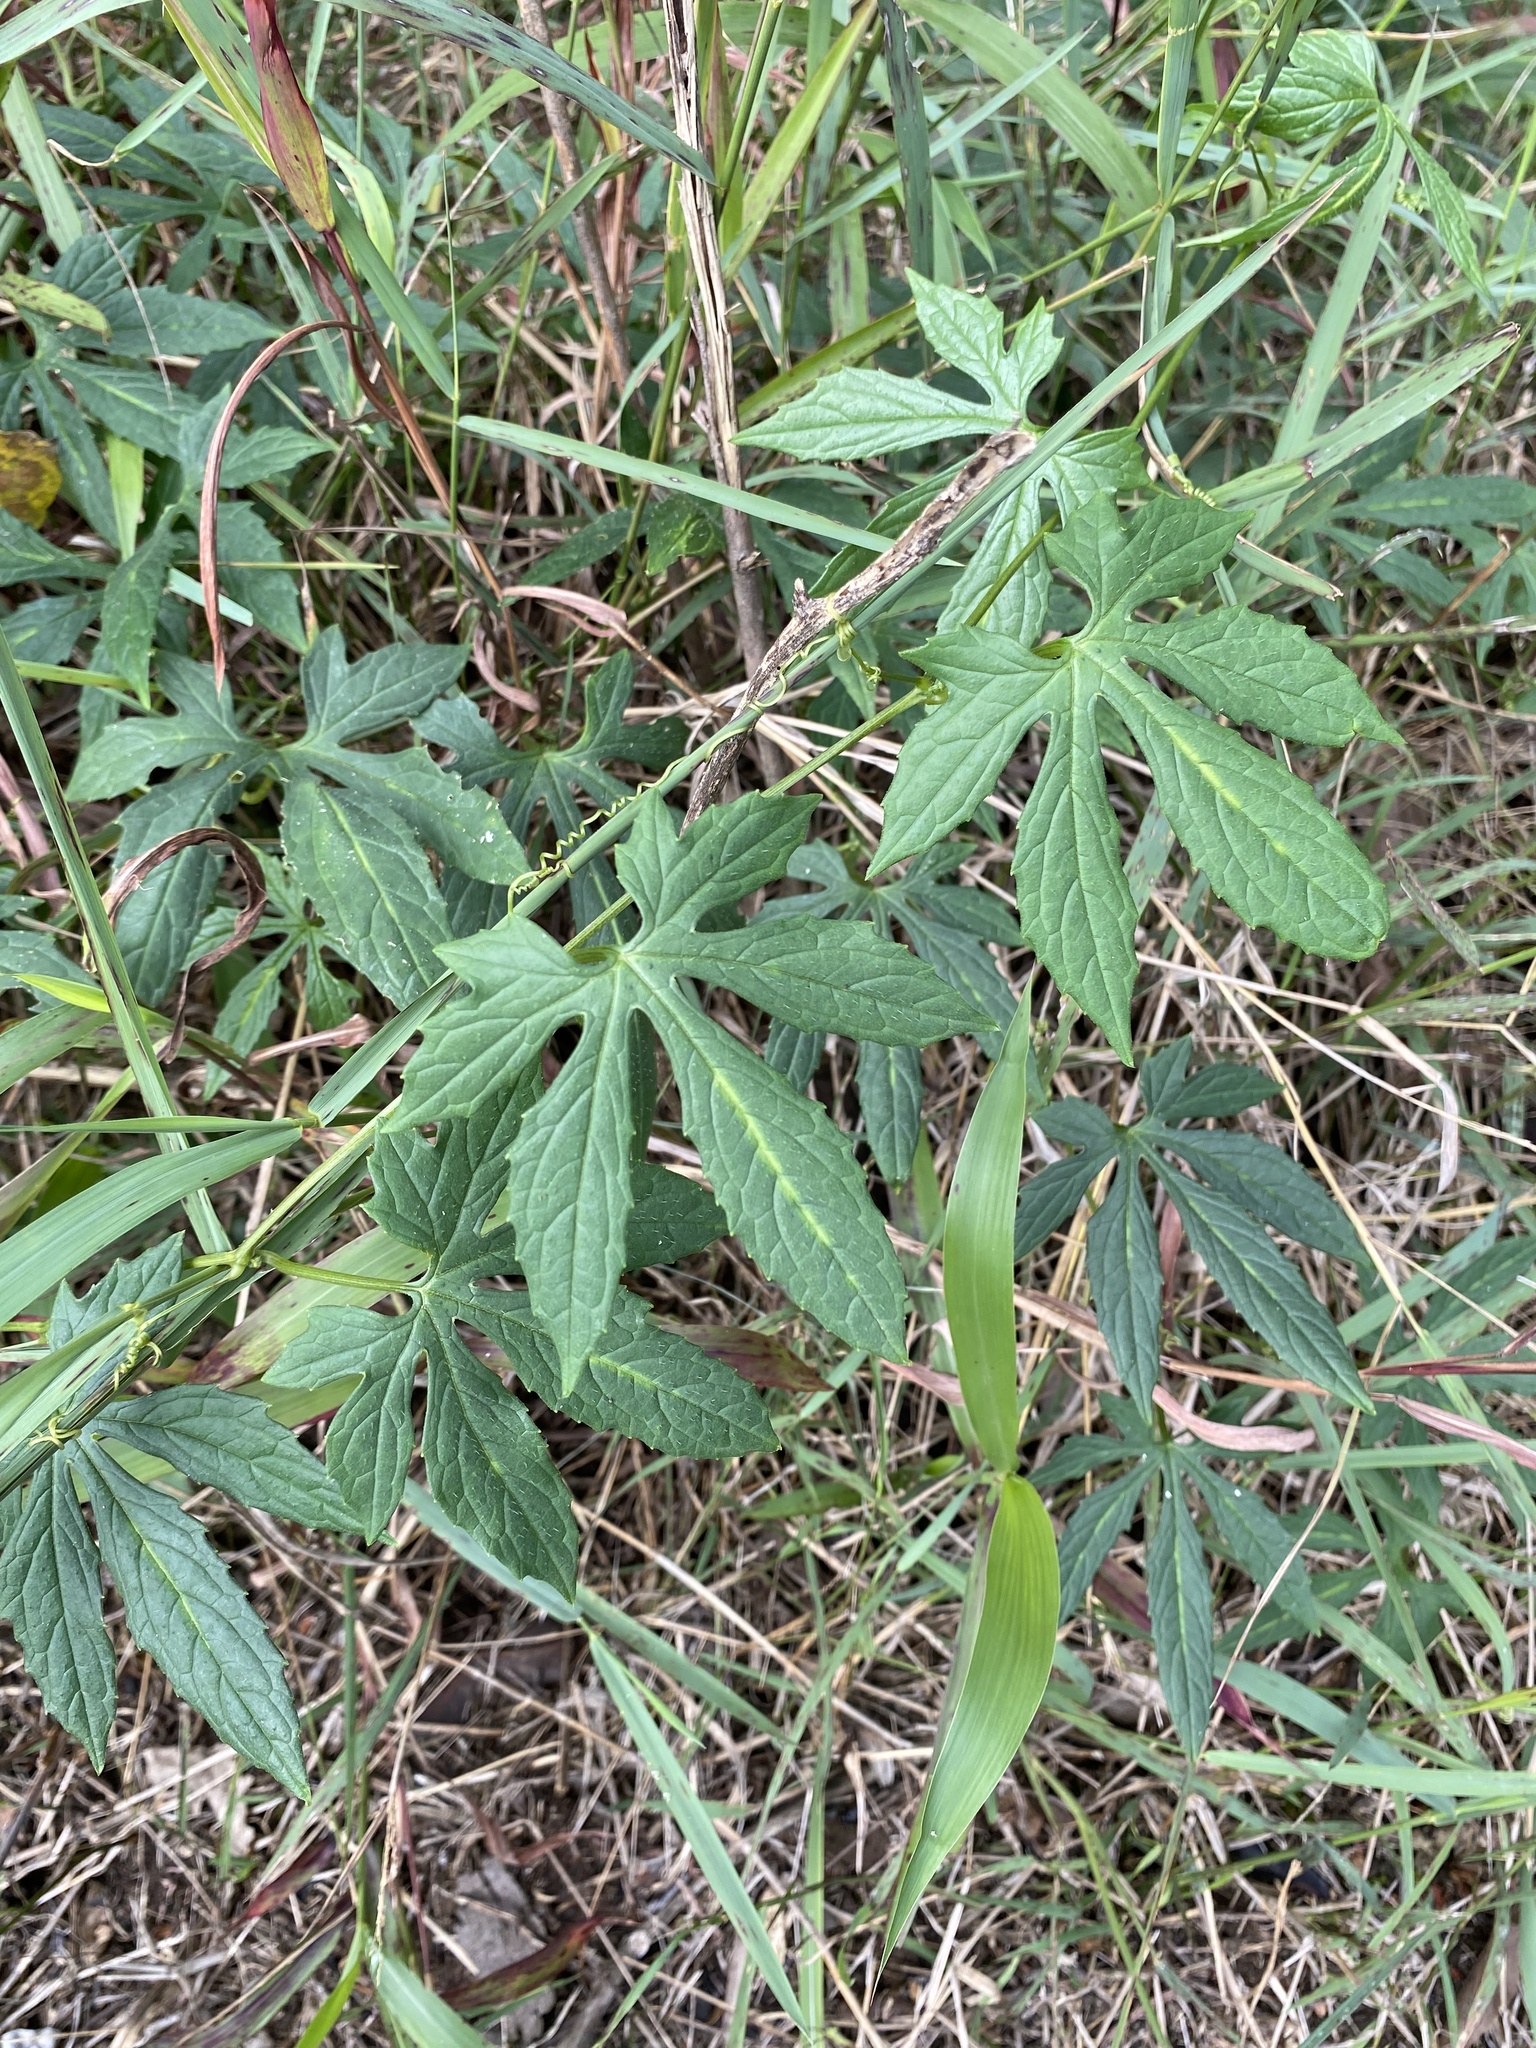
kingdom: Plantae
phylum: Tracheophyta
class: Magnoliopsida
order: Cucurbitales
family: Cucurbitaceae
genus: Diplocyclos
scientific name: Diplocyclos palmatus
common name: Striped-cucumber
